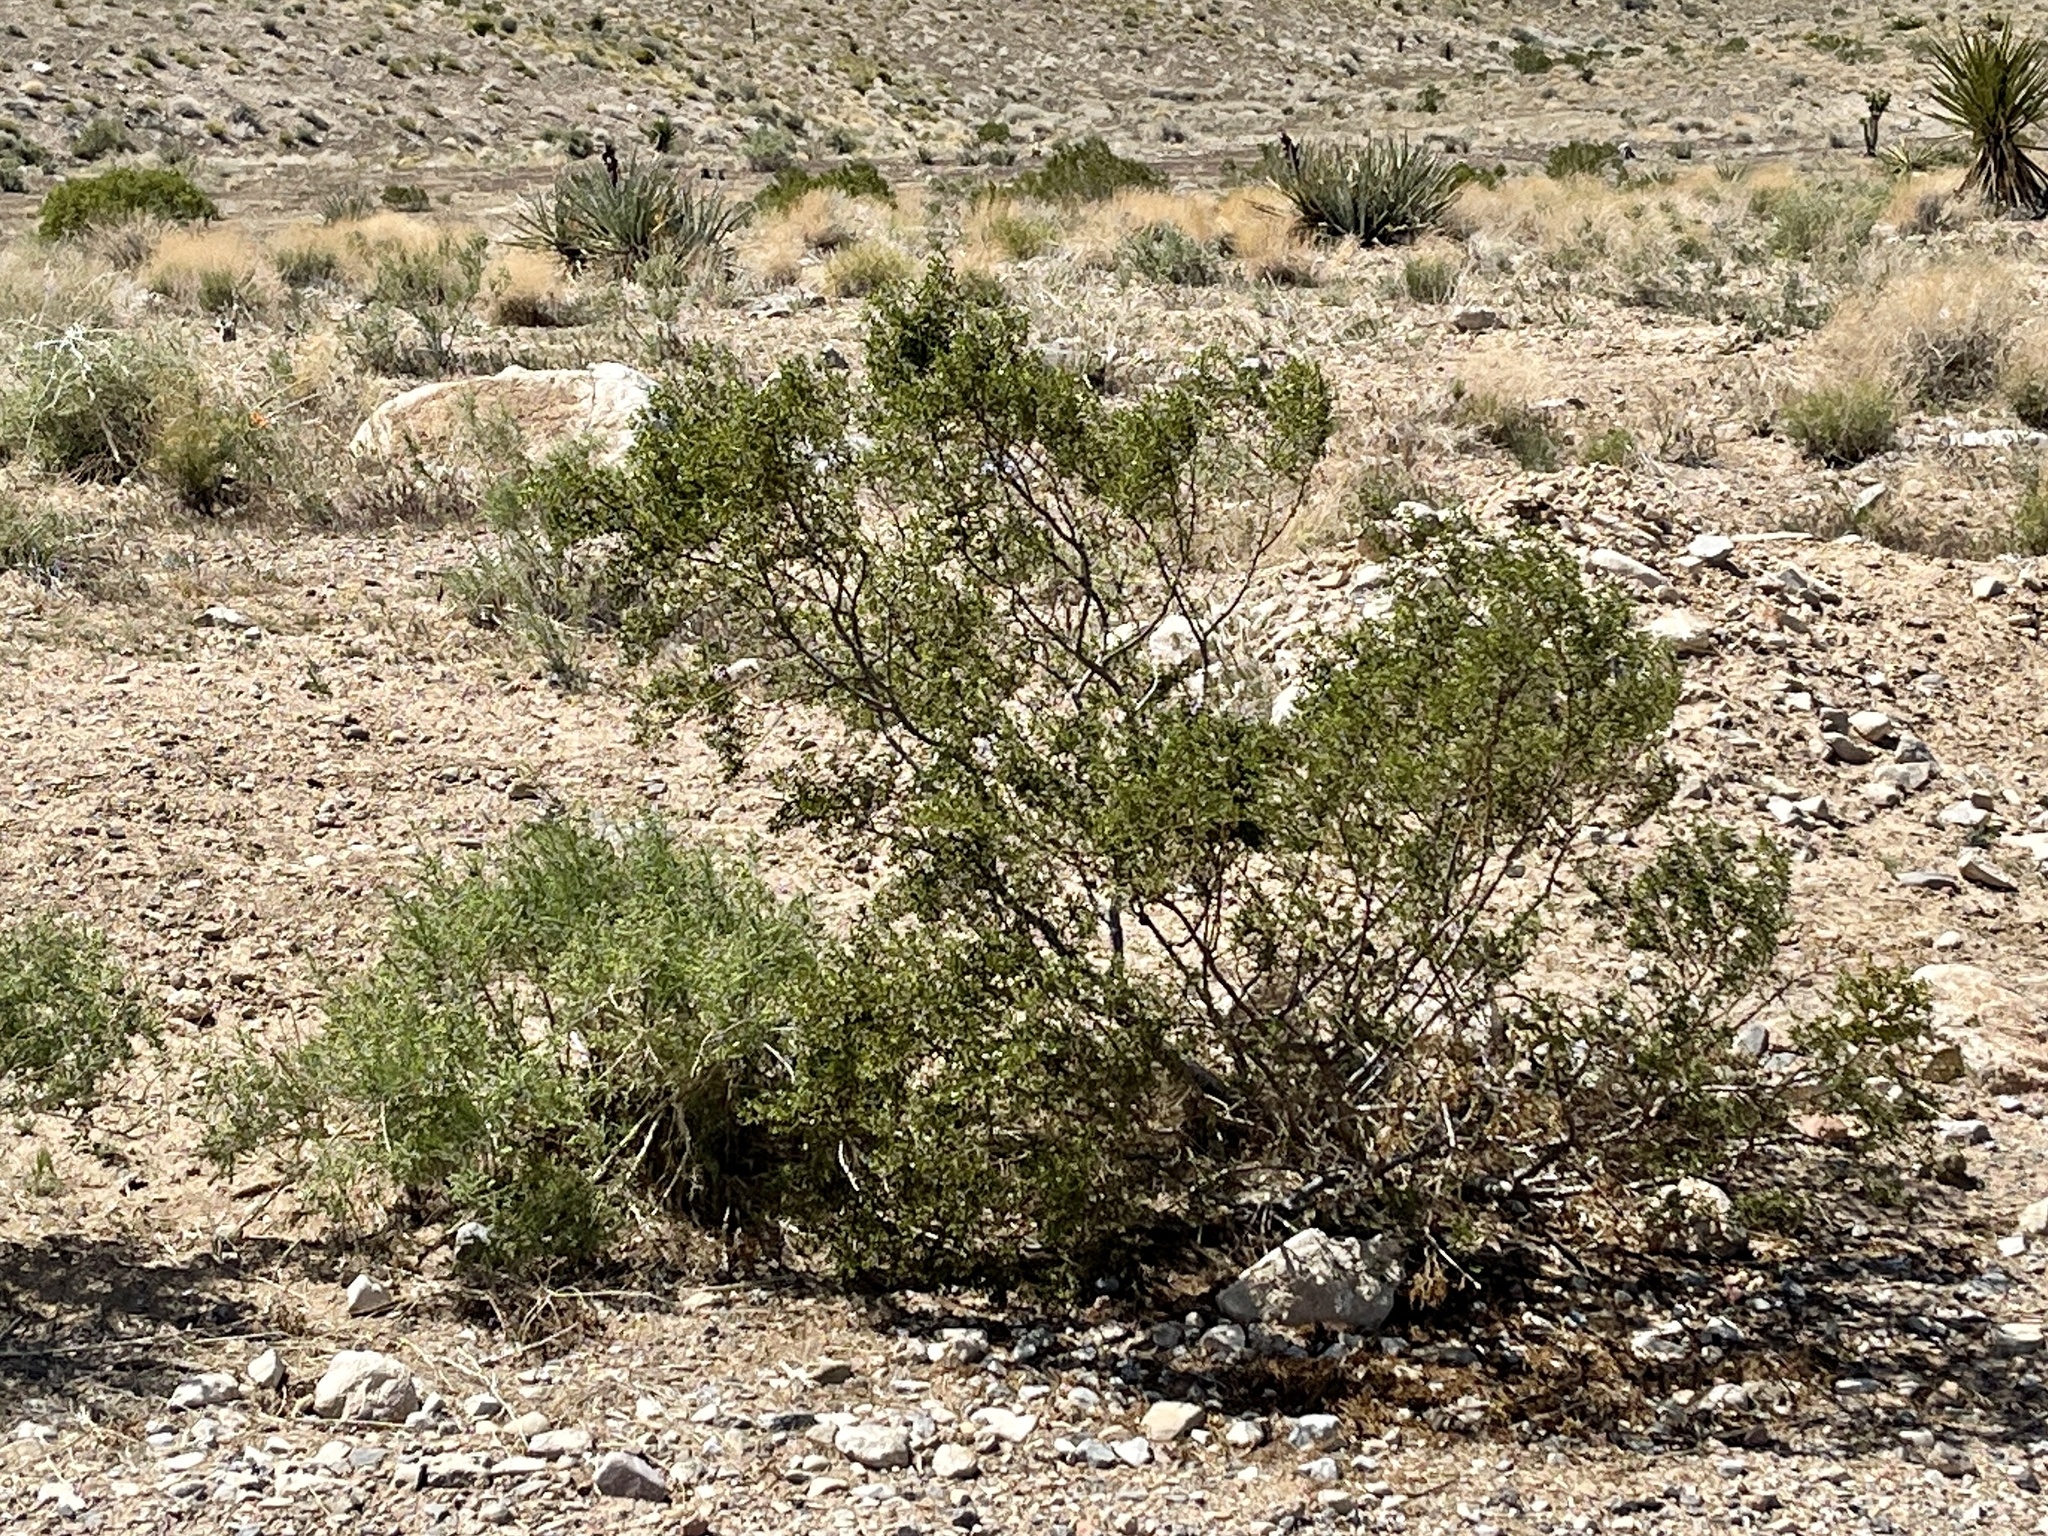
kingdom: Plantae
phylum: Tracheophyta
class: Magnoliopsida
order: Zygophyllales
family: Zygophyllaceae
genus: Larrea
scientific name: Larrea tridentata
